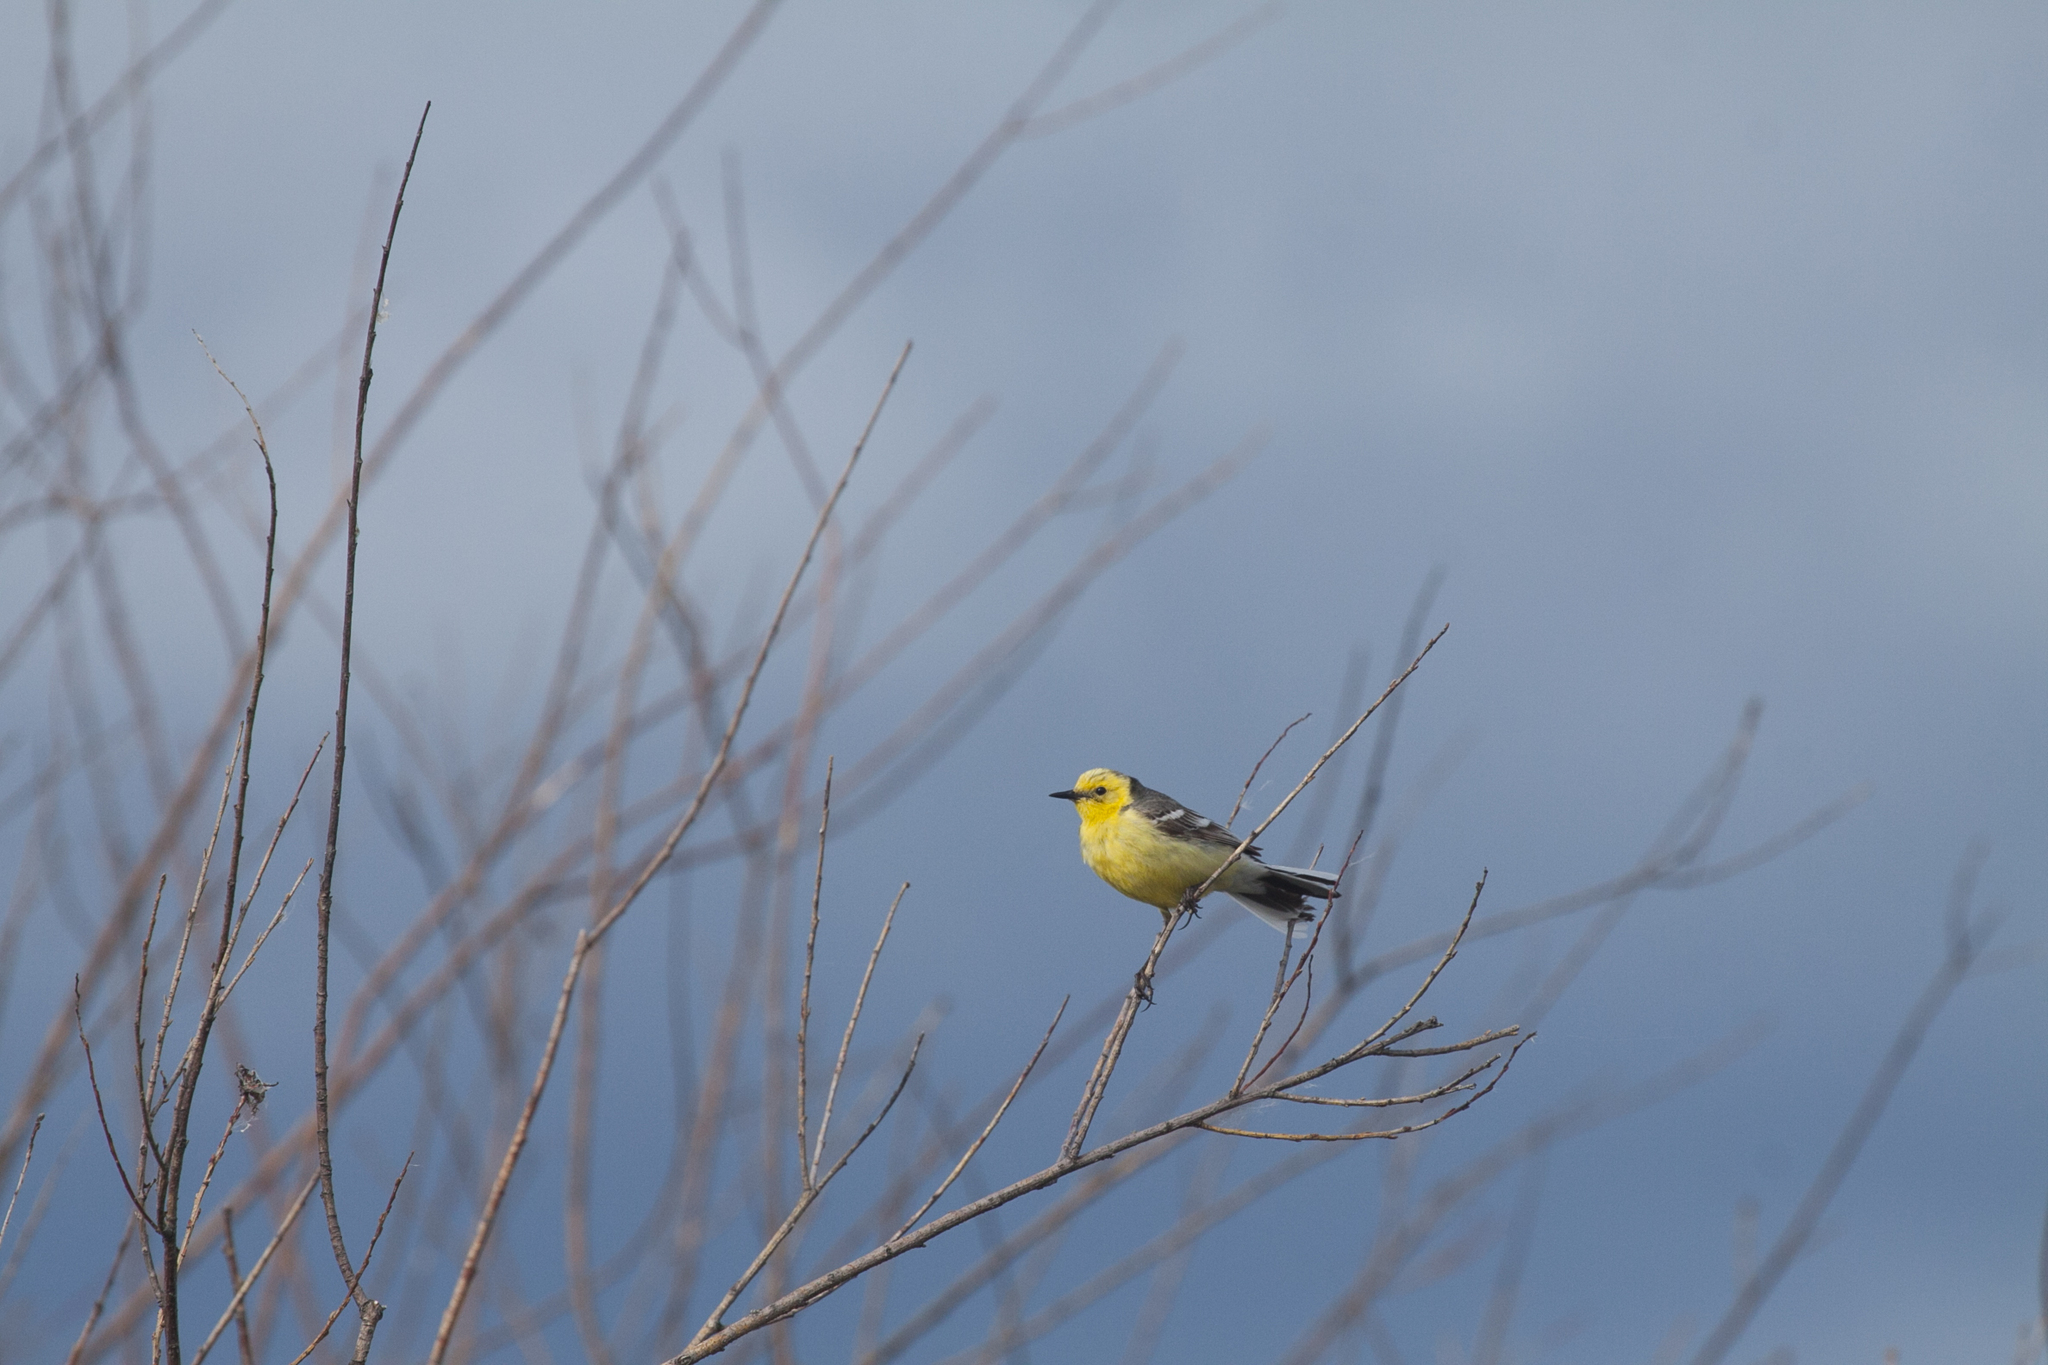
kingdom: Animalia
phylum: Chordata
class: Aves
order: Passeriformes
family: Motacillidae
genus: Motacilla
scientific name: Motacilla citreola
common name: Citrine wagtail
